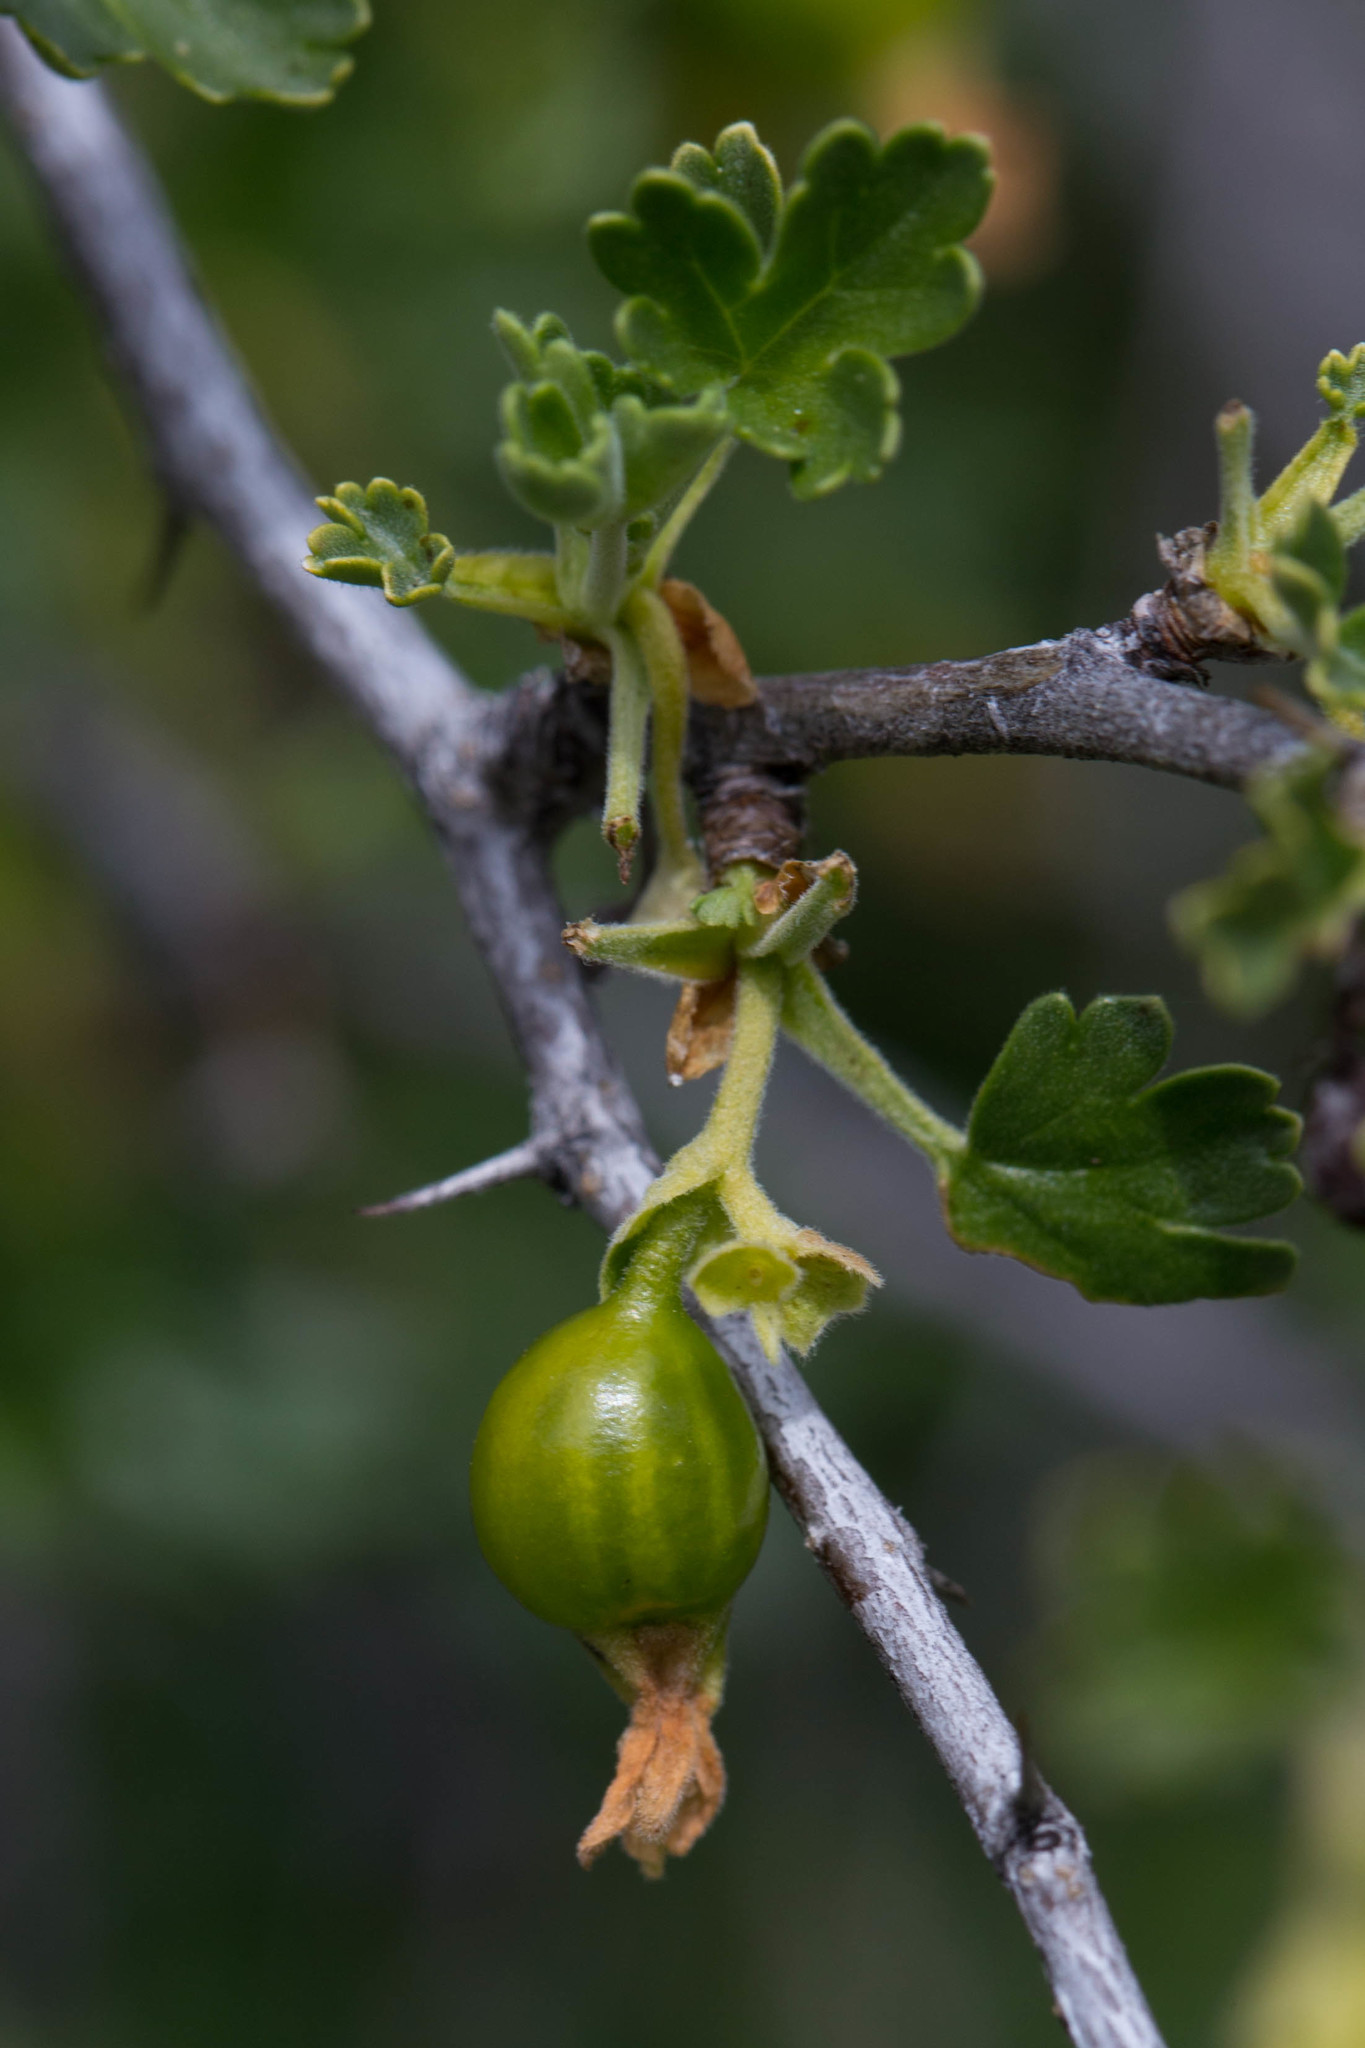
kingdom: Plantae
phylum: Tracheophyta
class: Magnoliopsida
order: Saxifragales
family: Grossulariaceae
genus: Ribes
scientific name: Ribes quercetorum
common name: Oak gooseberry
